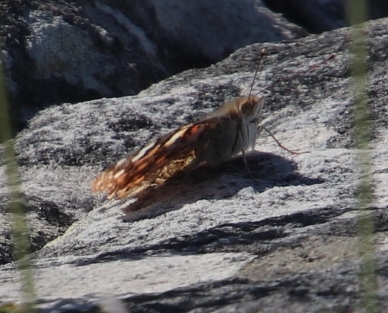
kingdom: Animalia
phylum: Arthropoda
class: Insecta
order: Lepidoptera
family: Nymphalidae
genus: Vanessa
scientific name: Vanessa cardui
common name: Painted lady
